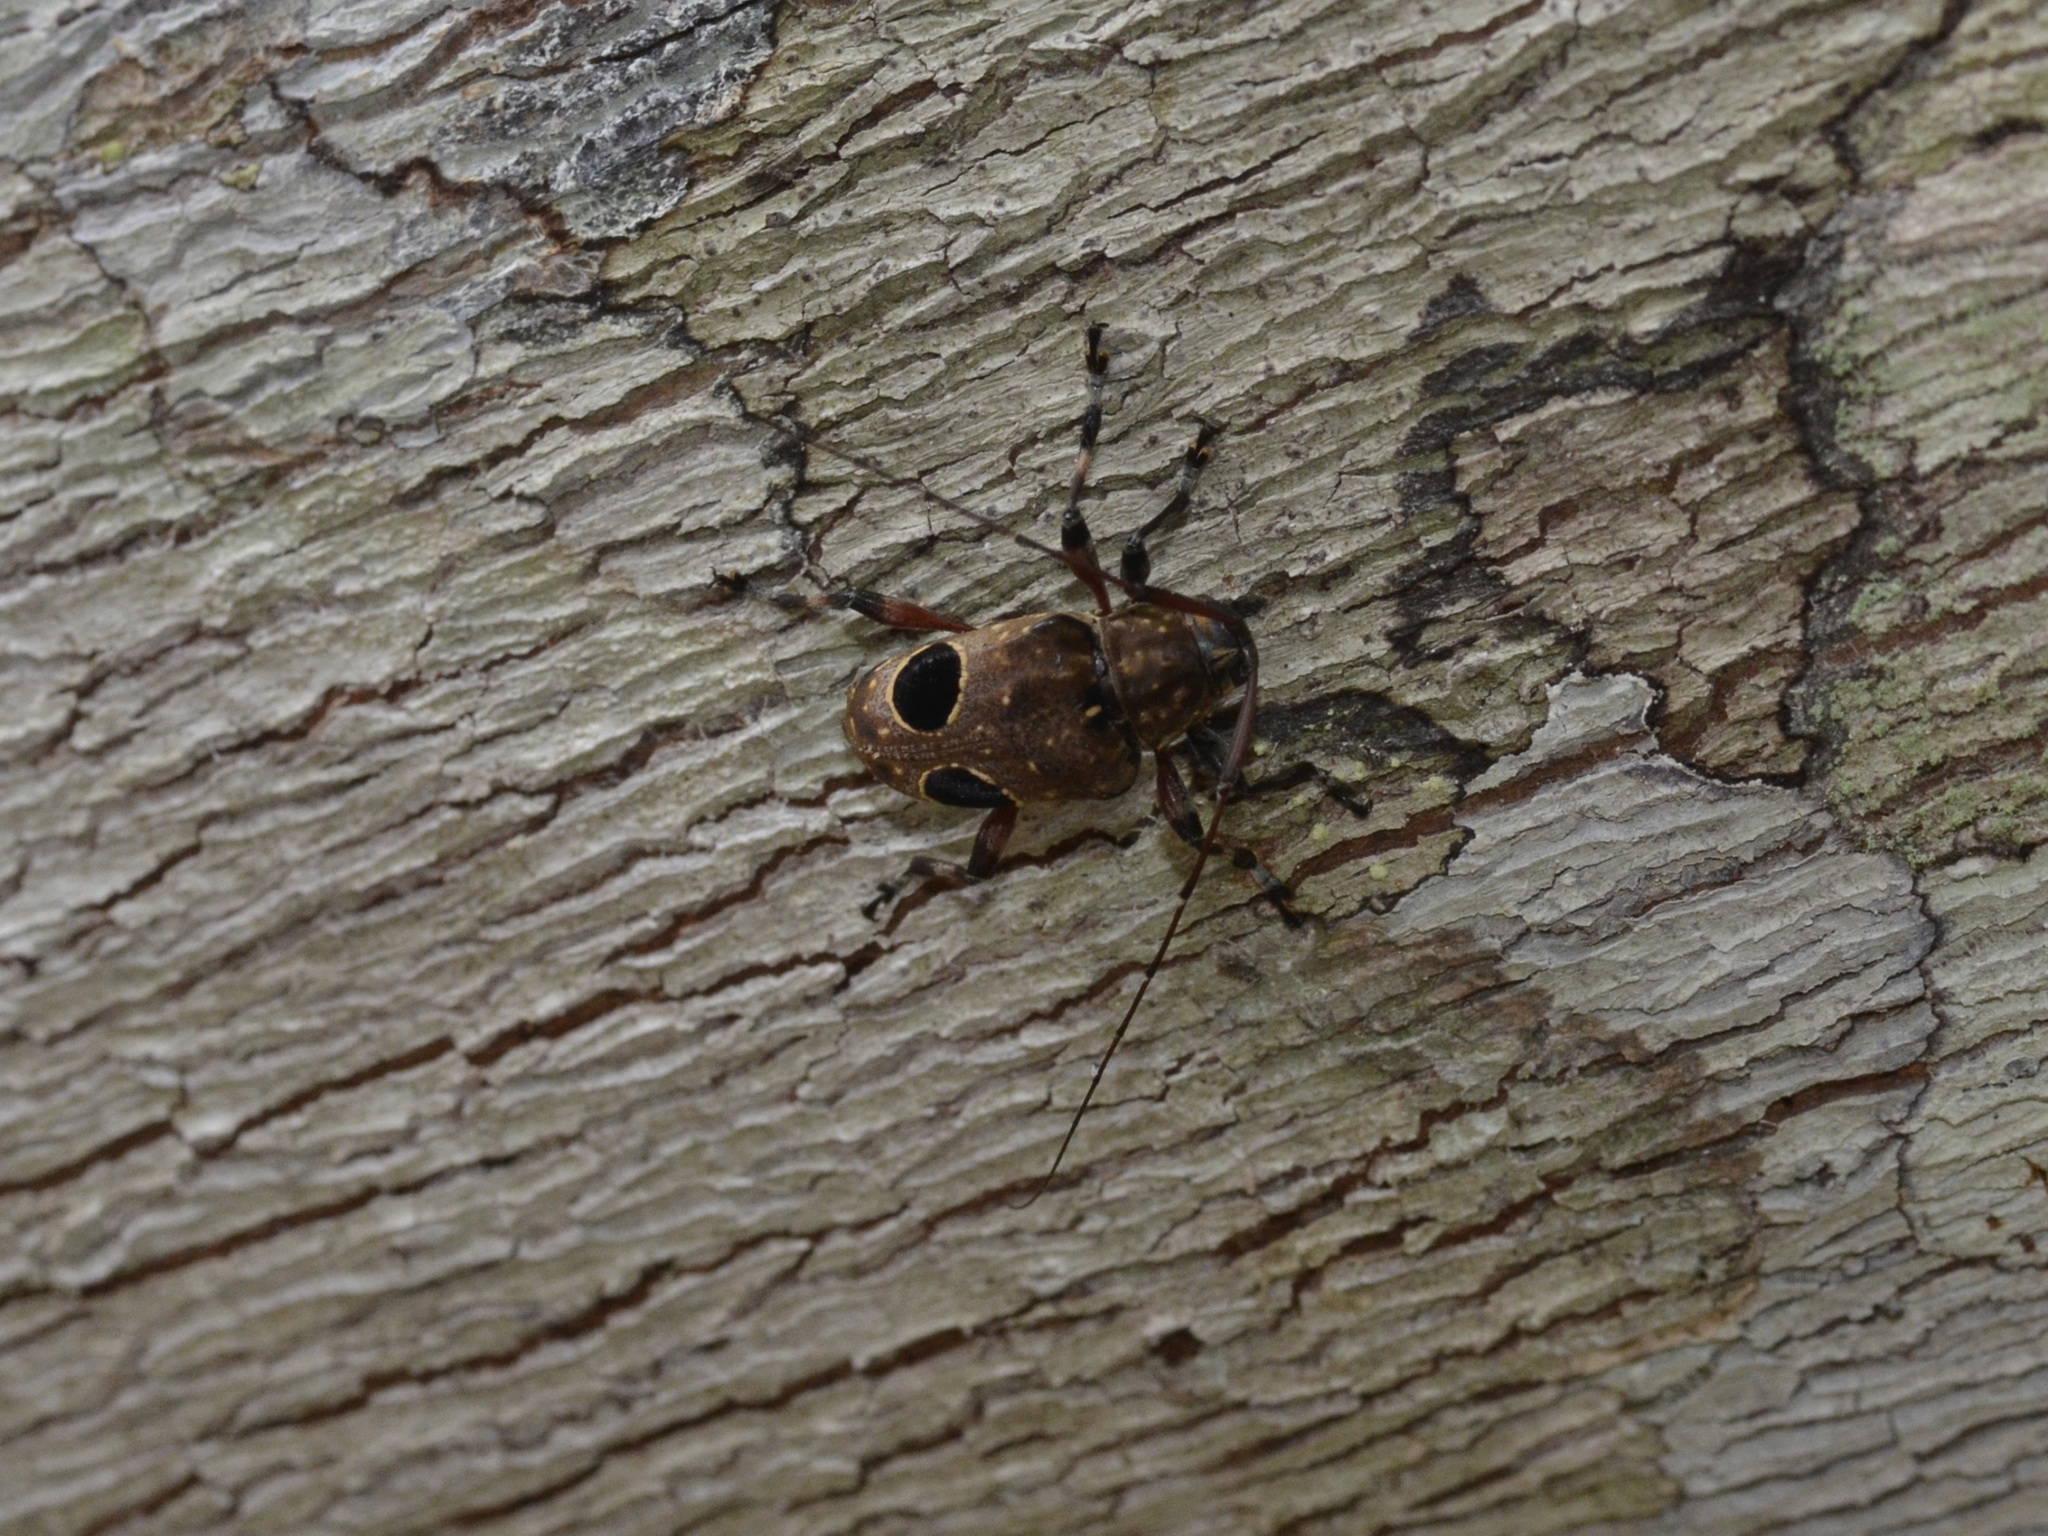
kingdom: Animalia
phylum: Arthropoda
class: Insecta
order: Coleoptera
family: Cerambycidae
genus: Priscilla
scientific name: Priscilla hypsiomoides
